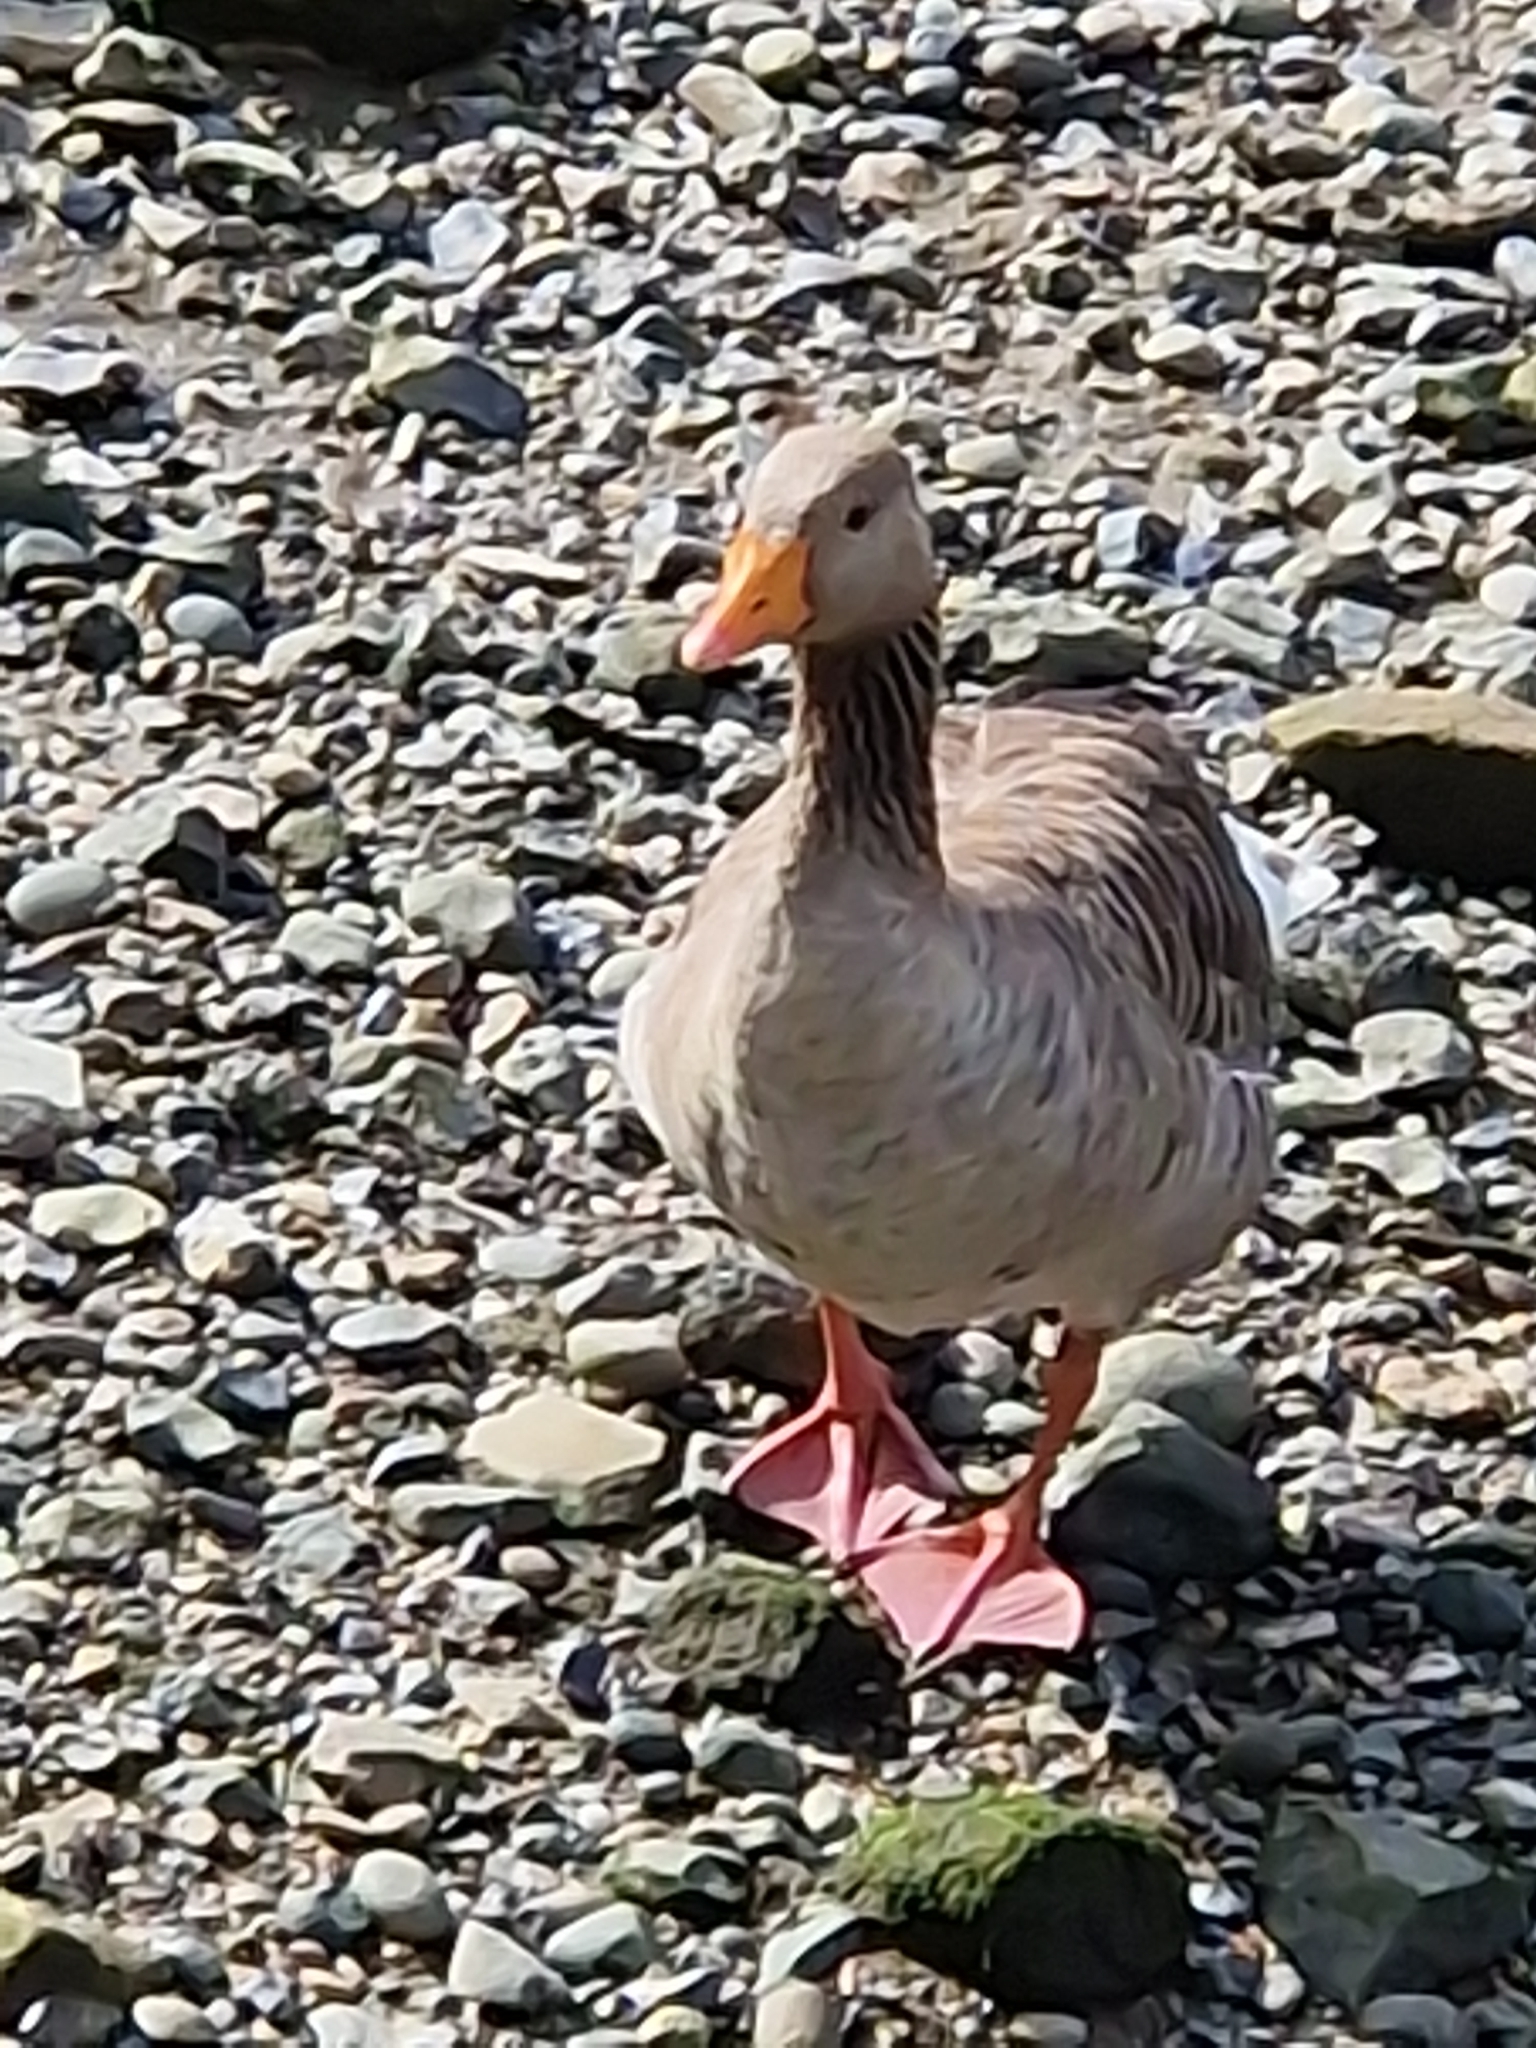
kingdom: Animalia
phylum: Chordata
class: Aves
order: Anseriformes
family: Anatidae
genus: Anser
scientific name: Anser anser
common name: Greylag goose
